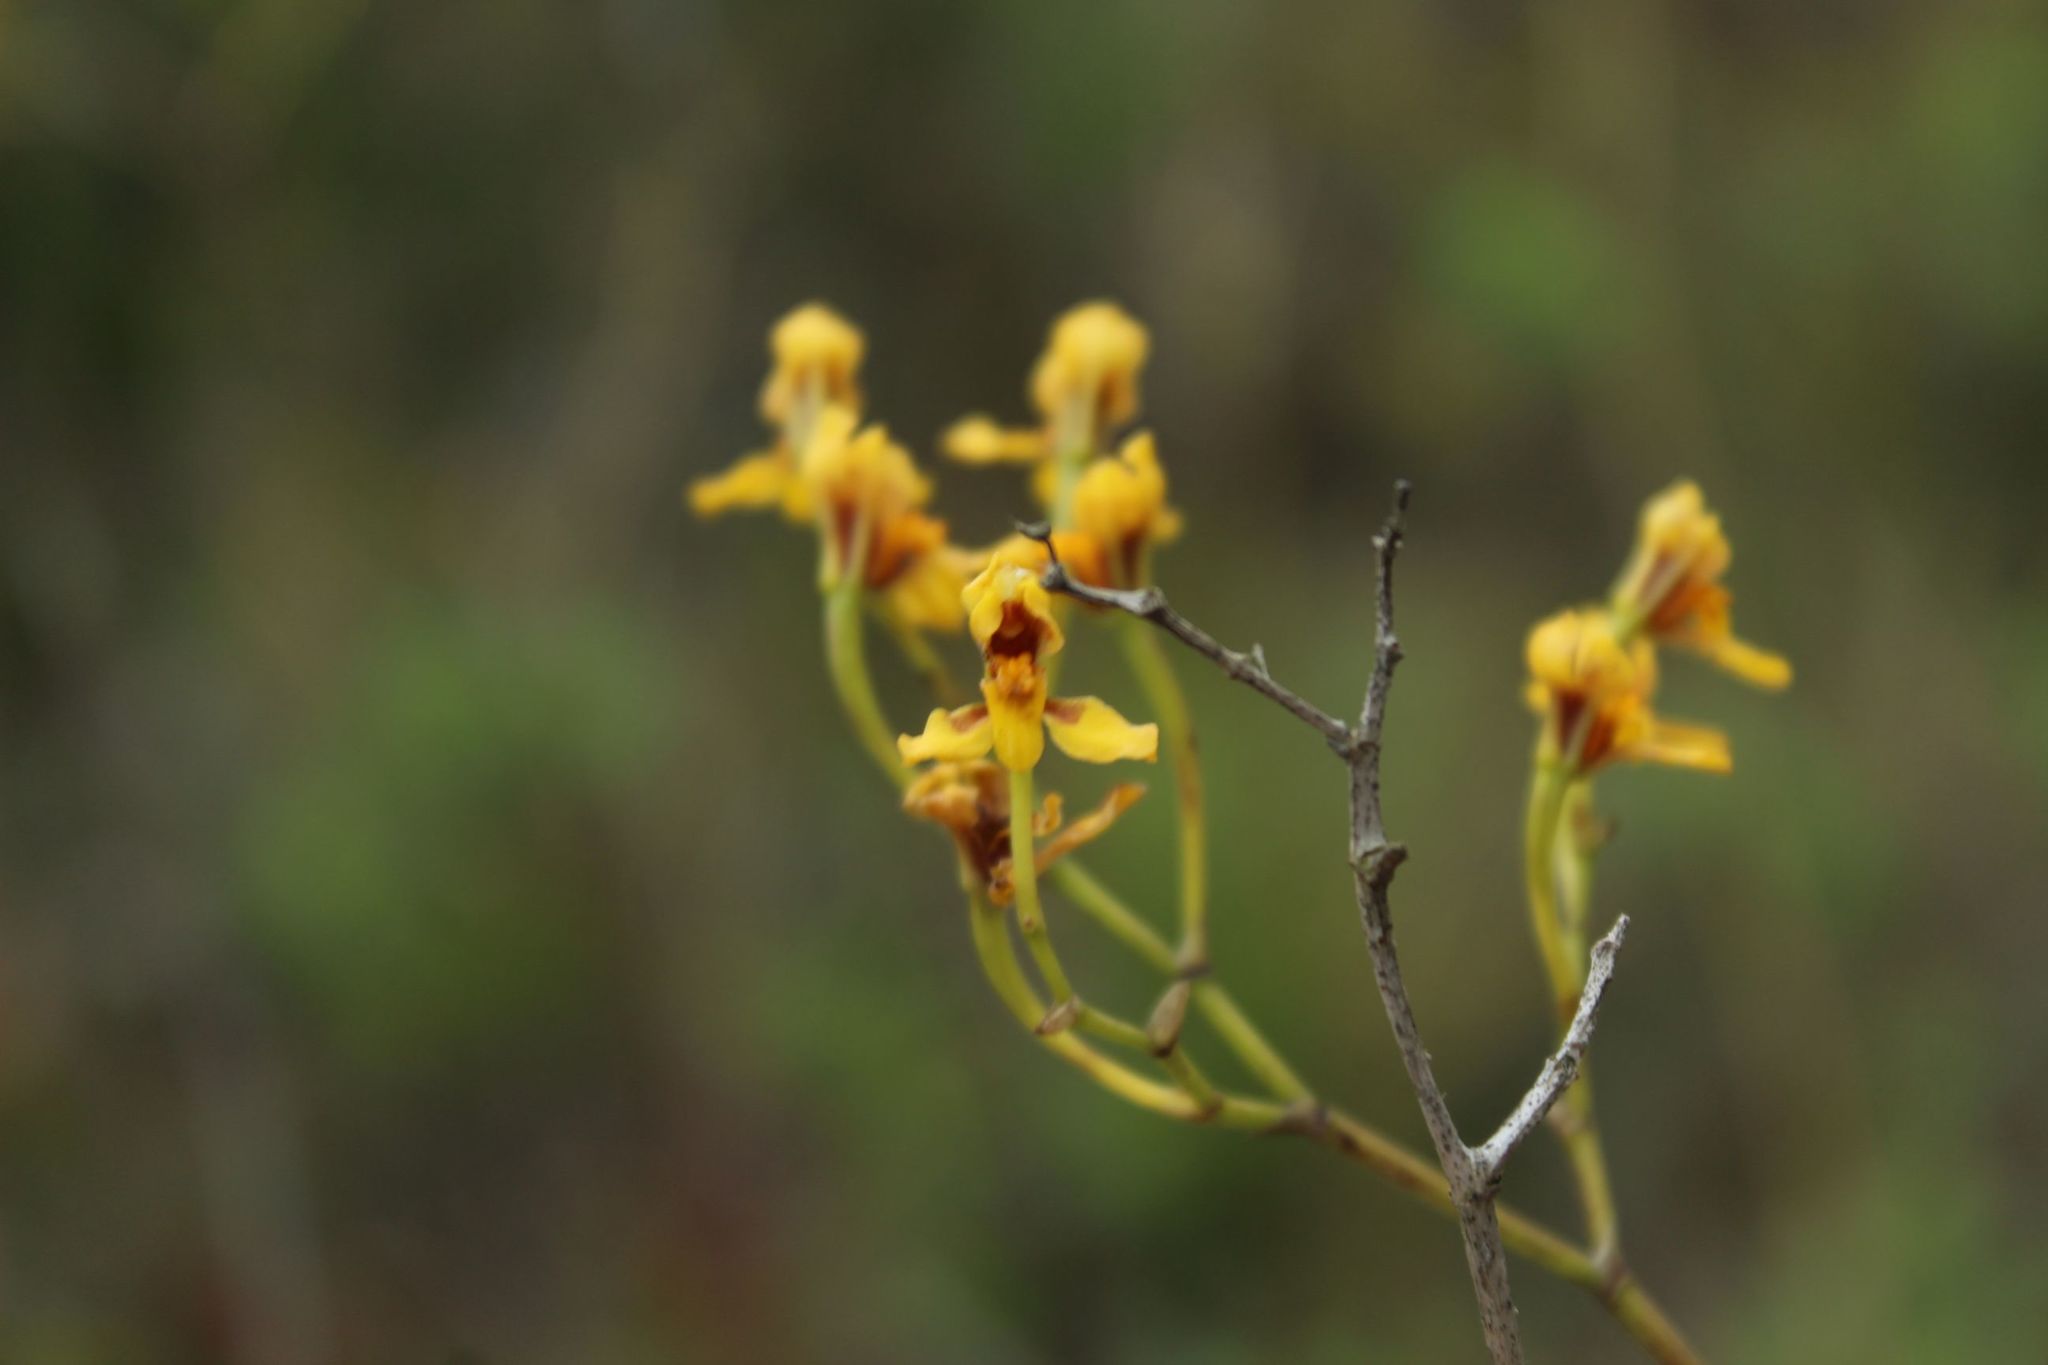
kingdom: Plantae
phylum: Tracheophyta
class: Liliopsida
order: Asparagales
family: Orchidaceae
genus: Cyrtochilum
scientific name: Cyrtochilum densiflorum
